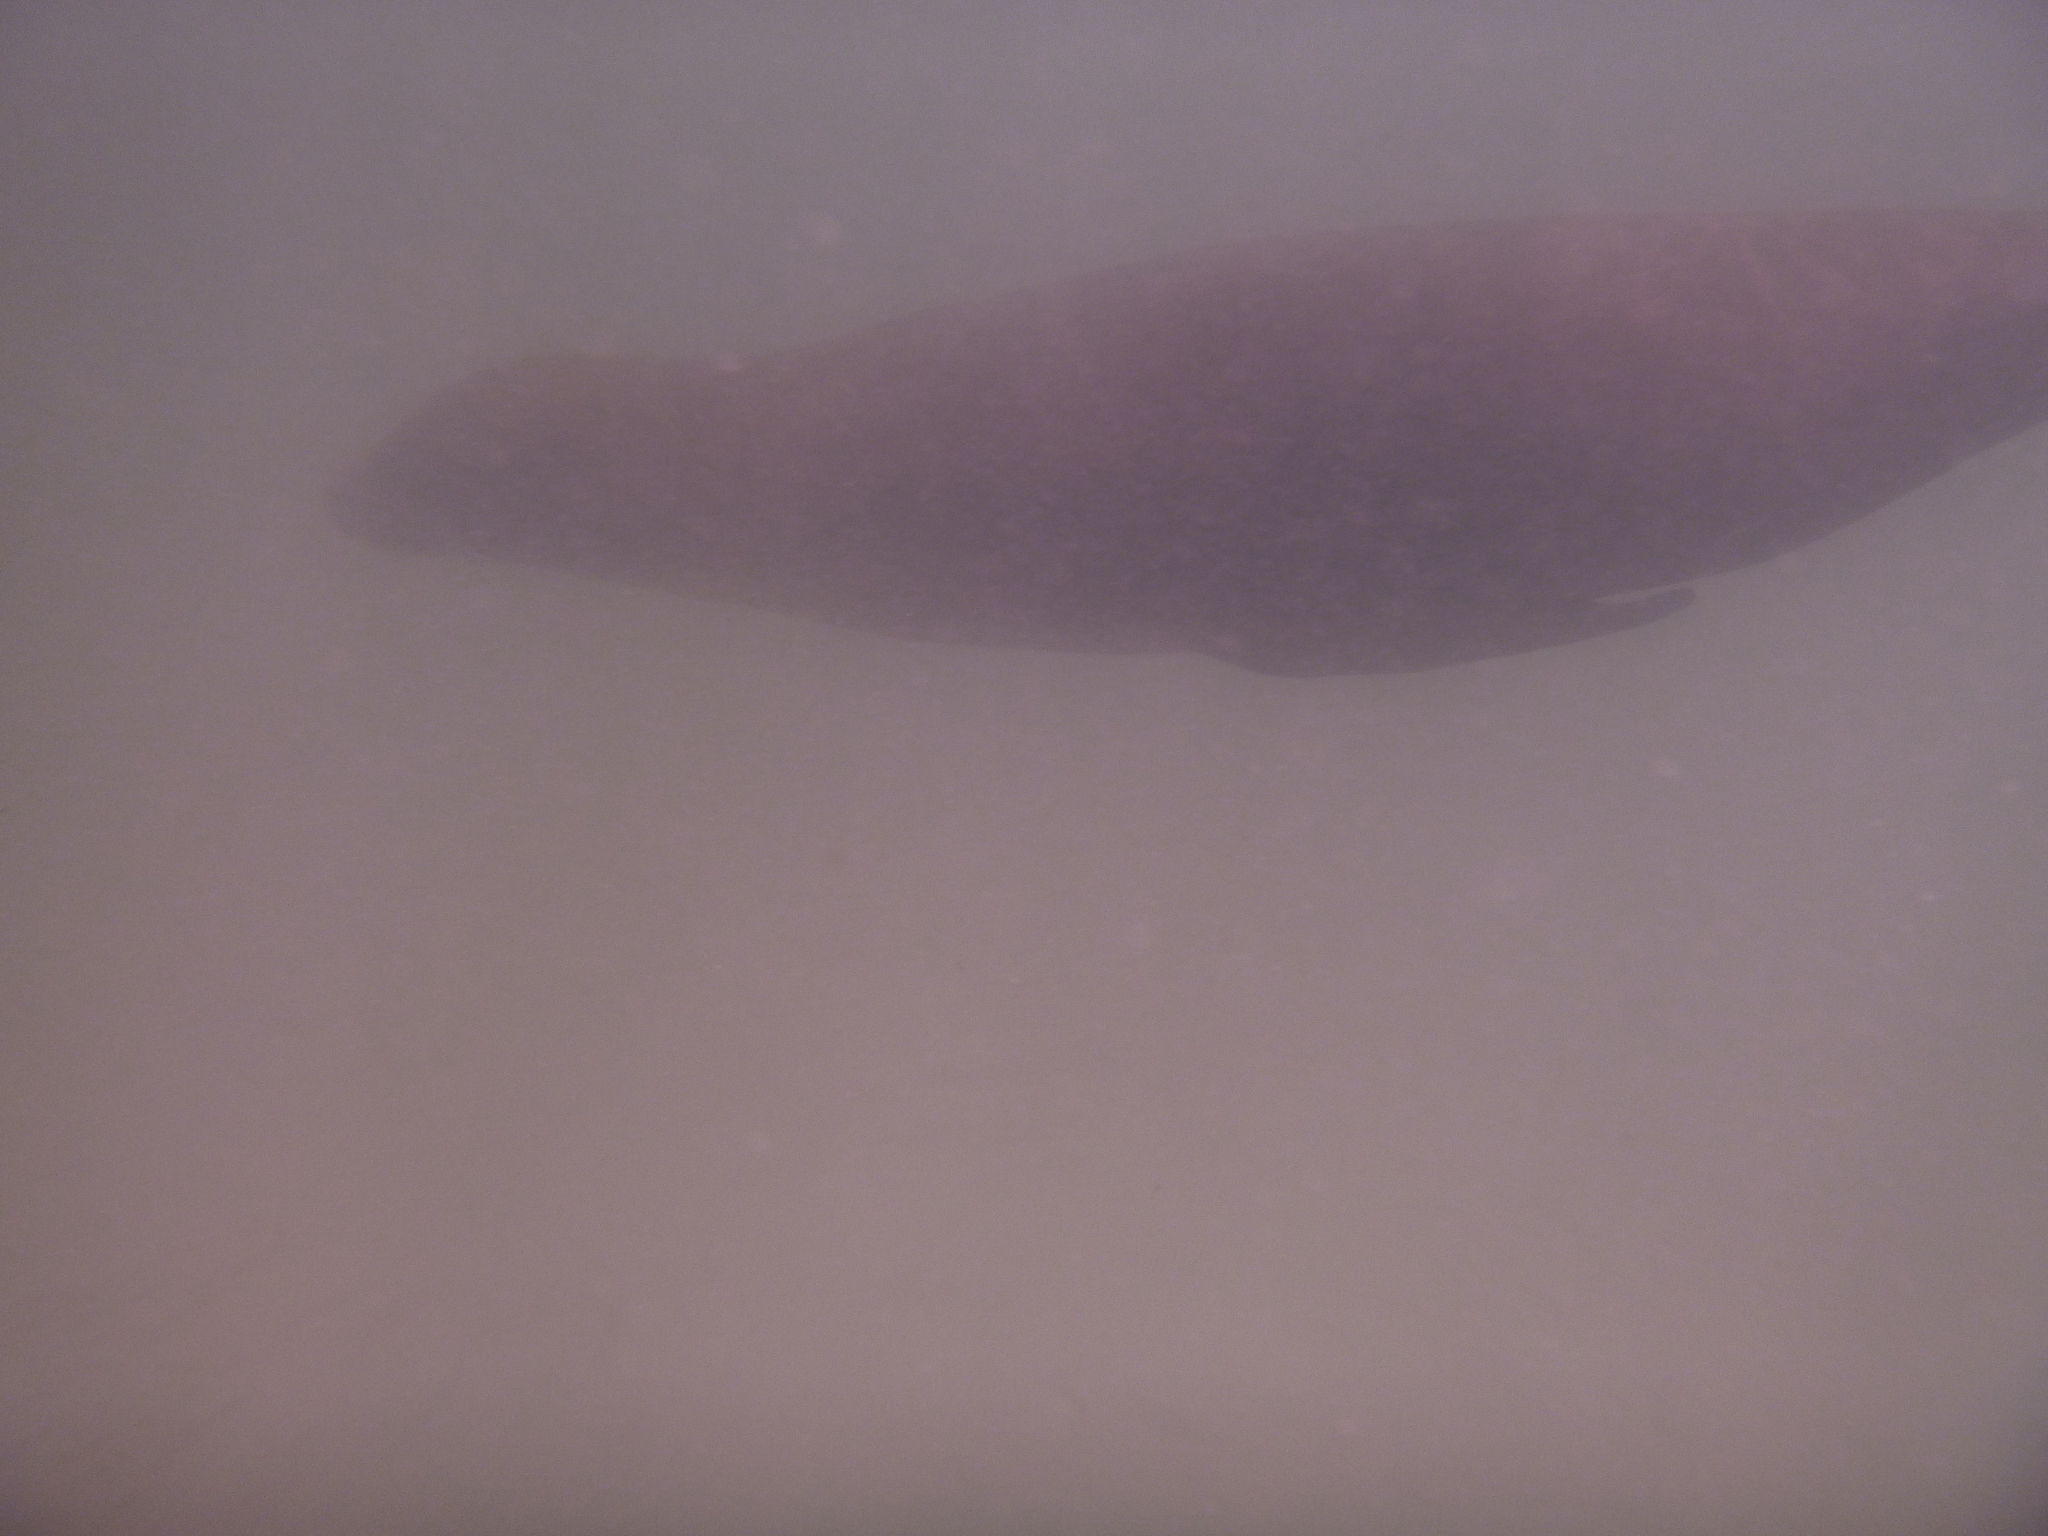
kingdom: Animalia
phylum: Chordata
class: Mammalia
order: Carnivora
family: Otariidae
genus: Zalophus
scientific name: Zalophus wollebaeki
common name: Galapagos sea lion
